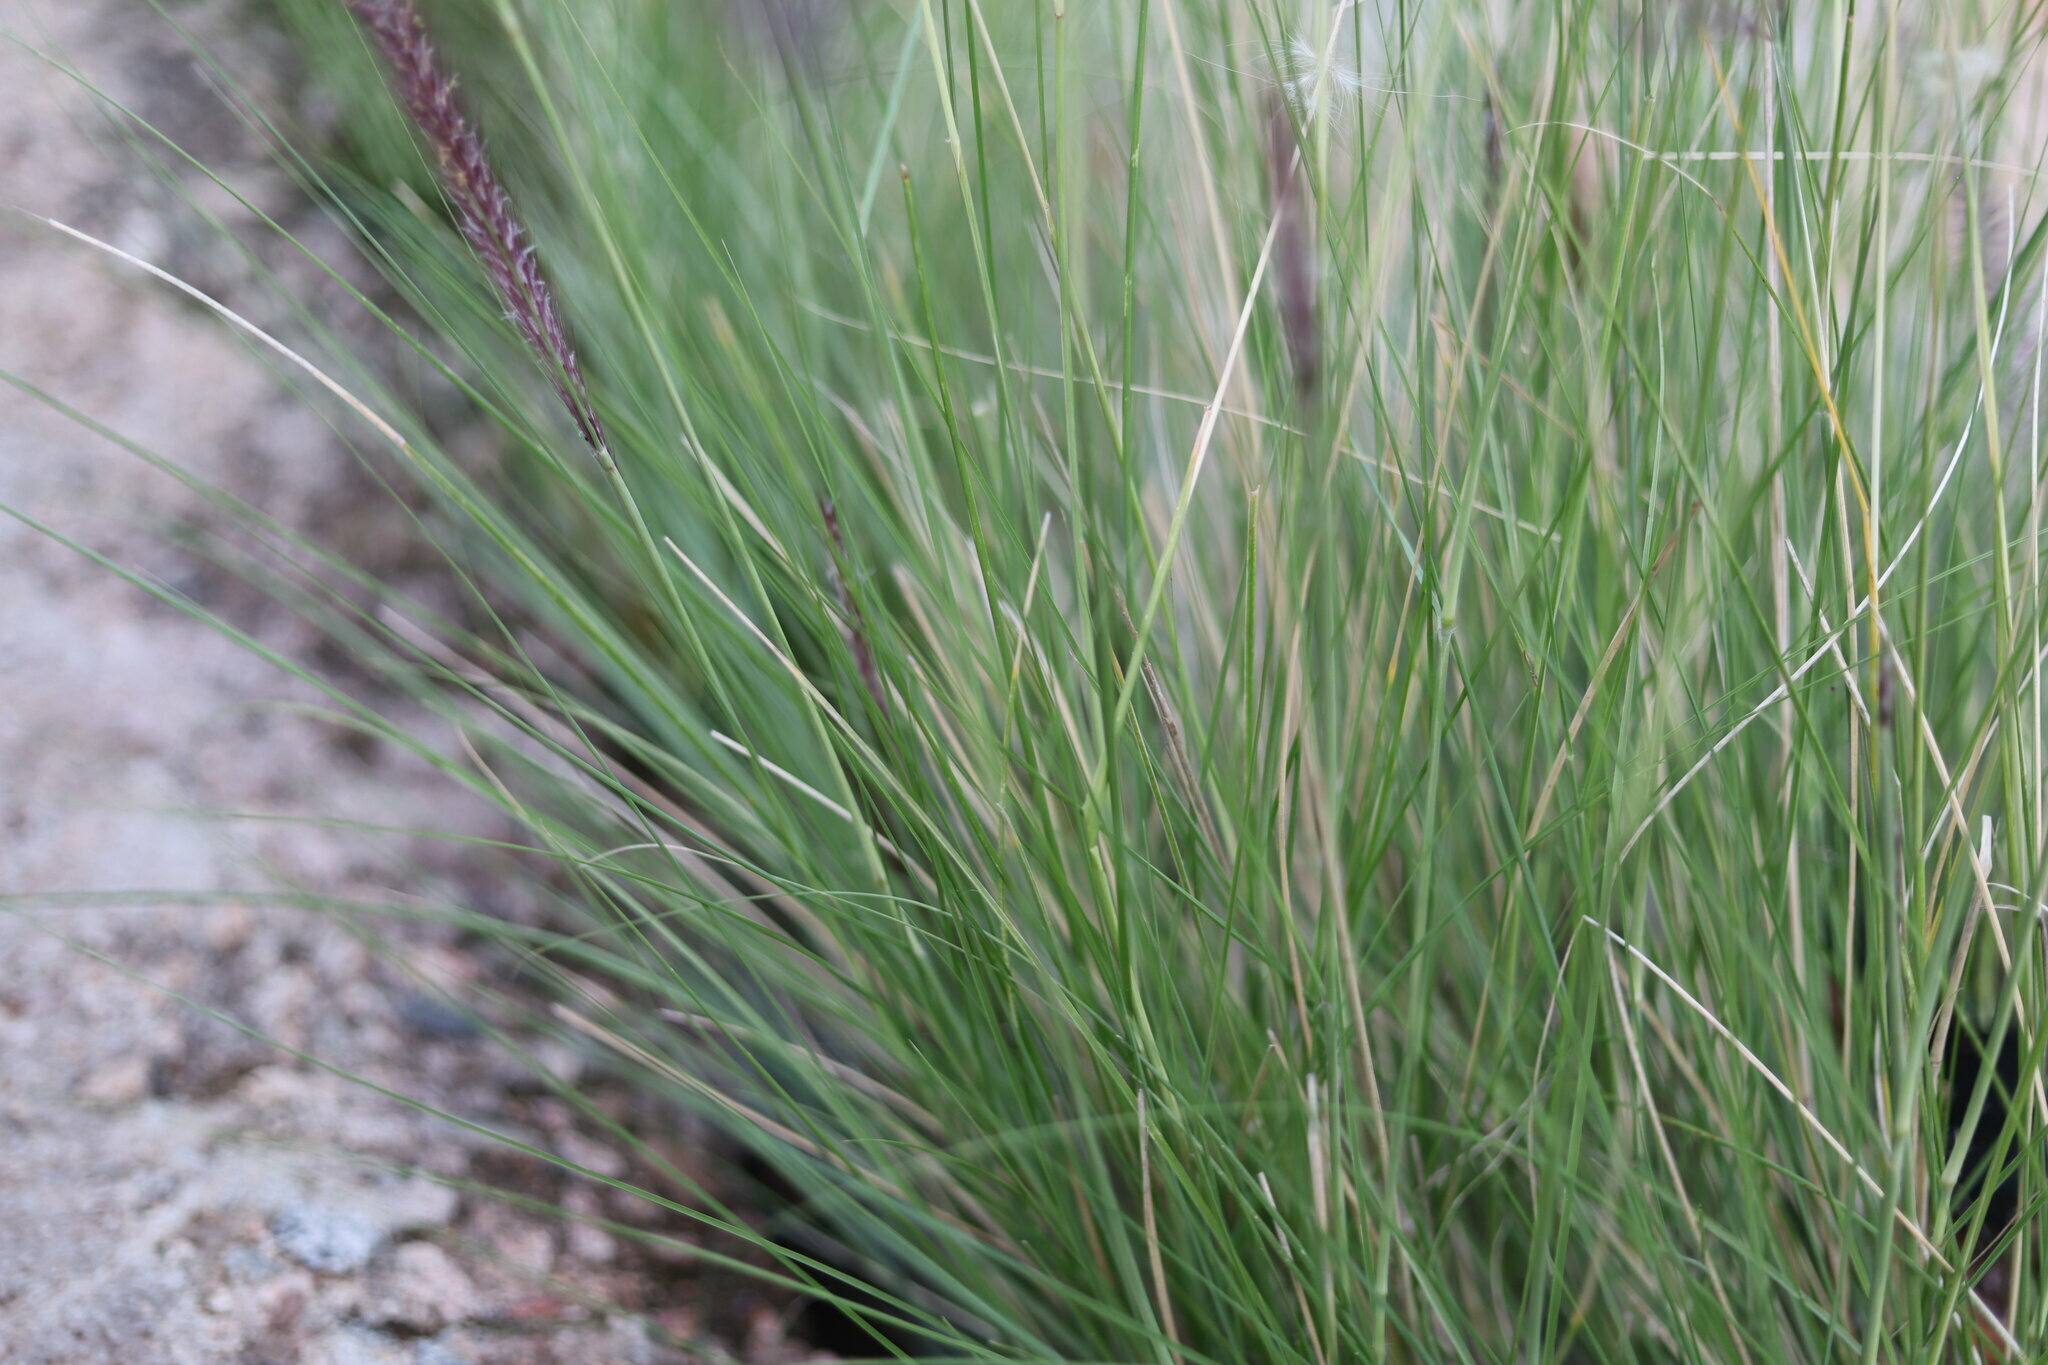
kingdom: Plantae
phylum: Tracheophyta
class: Liliopsida
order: Poales
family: Poaceae
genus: Cenchrus
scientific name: Cenchrus setaceus
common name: Crimson fountaingrass
